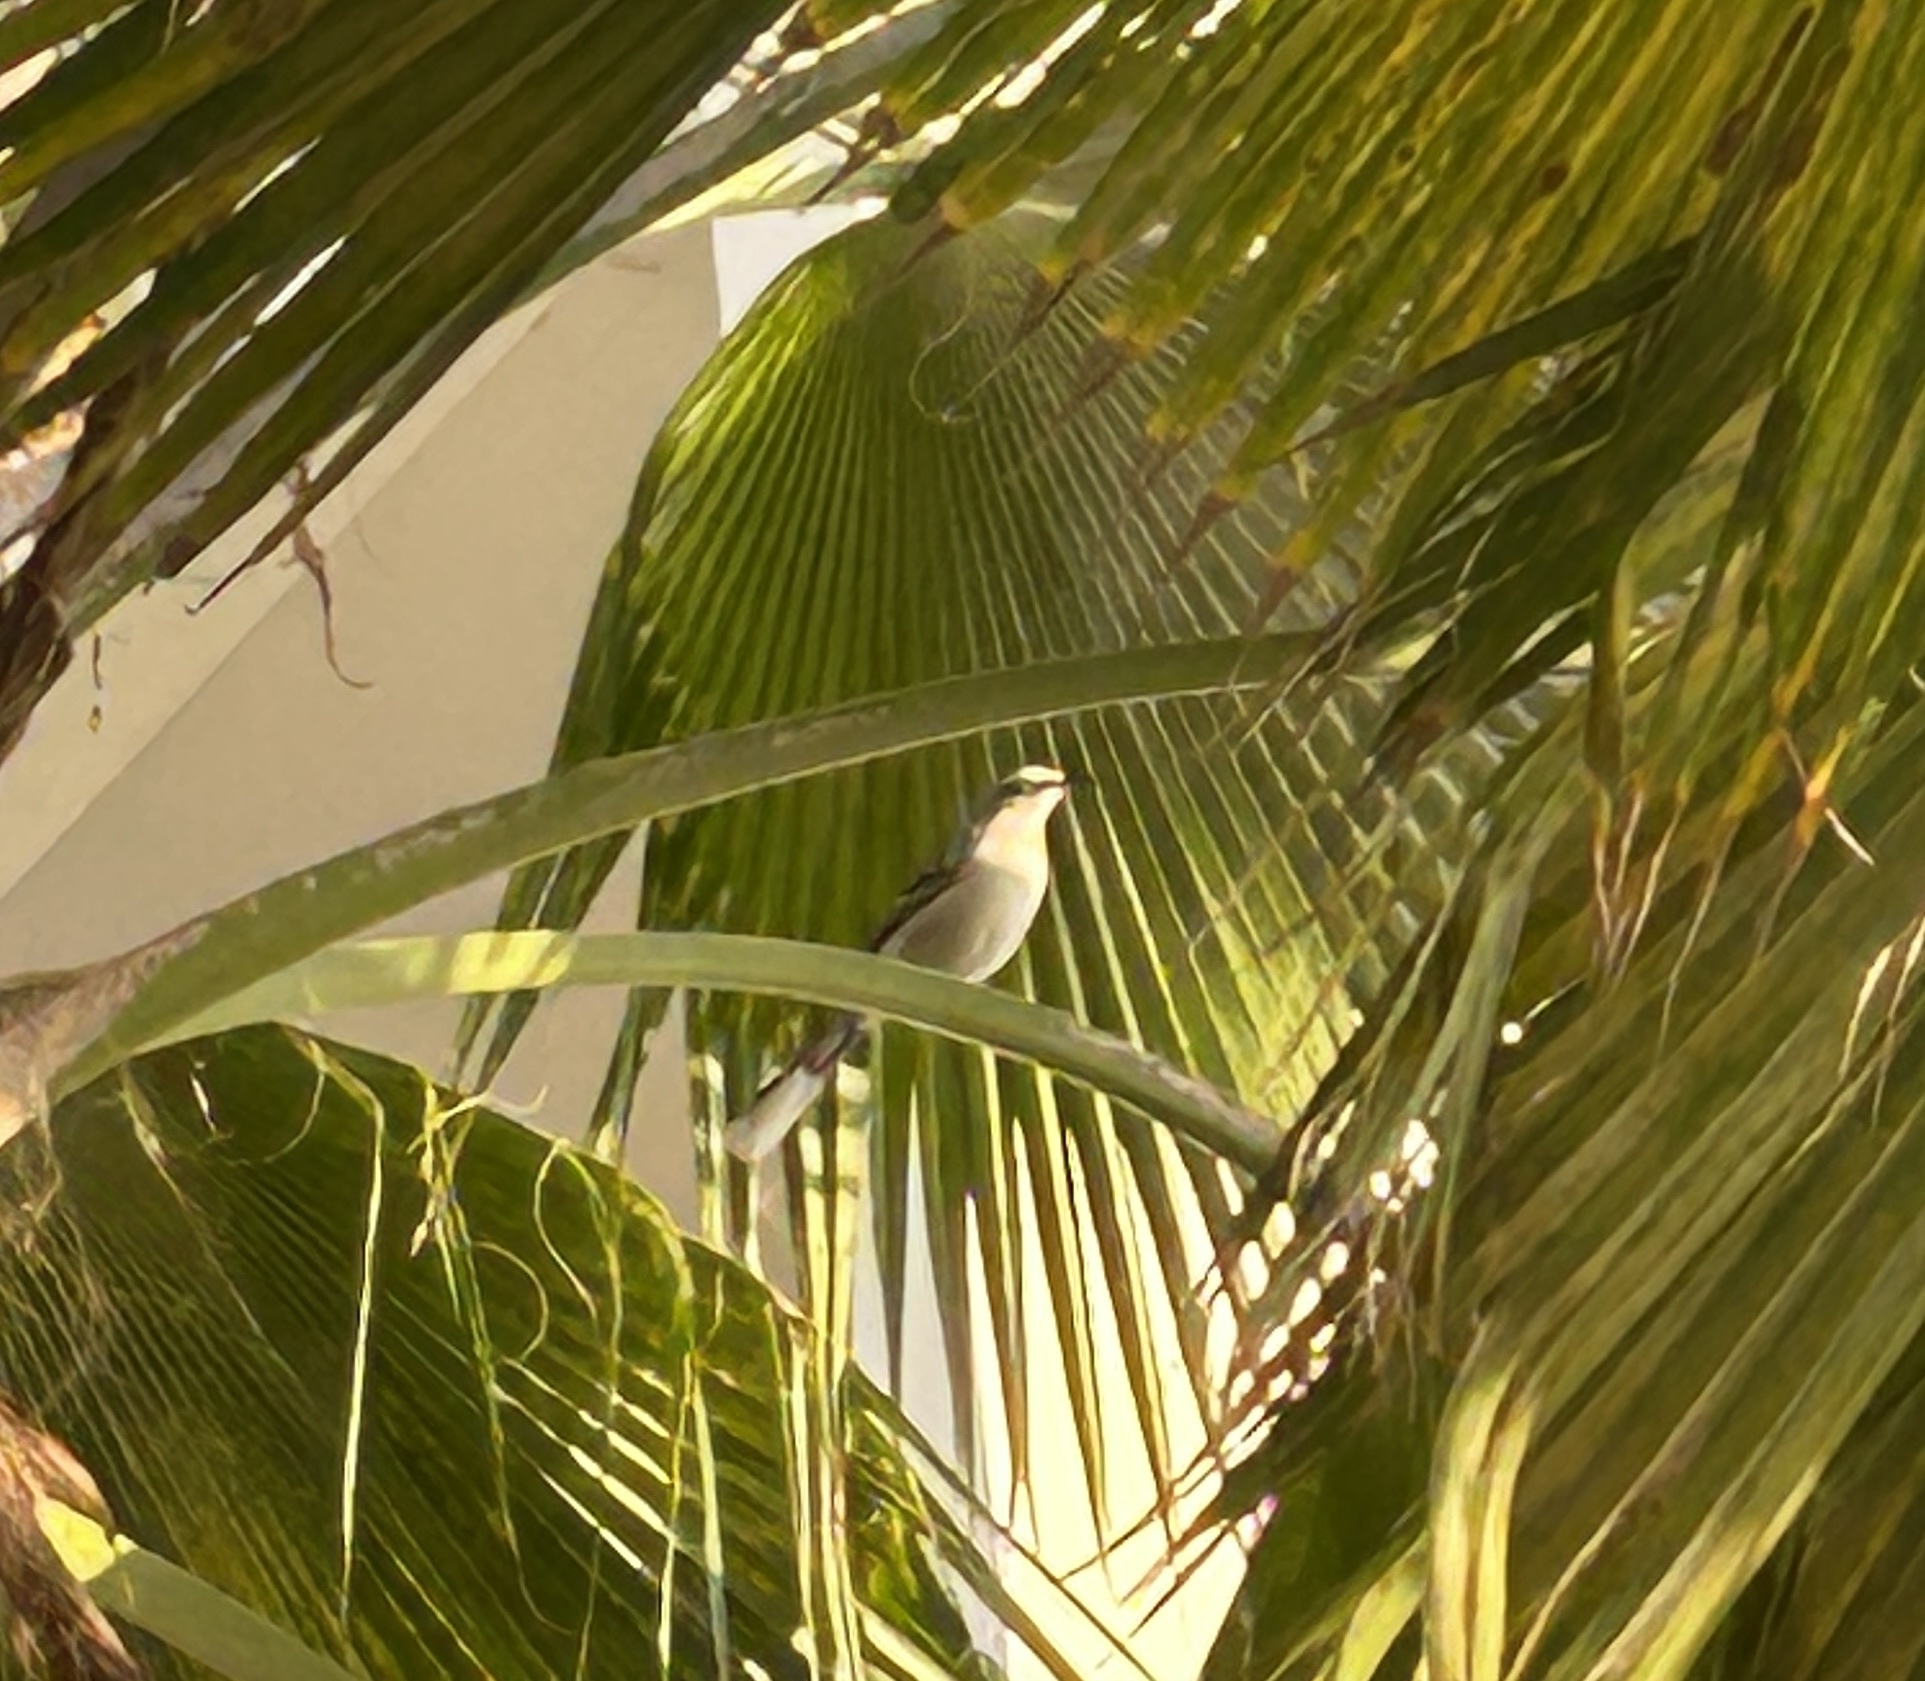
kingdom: Animalia
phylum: Chordata
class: Aves
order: Passeriformes
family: Mimidae
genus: Mimus
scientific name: Mimus gilvus
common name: Tropical mockingbird
